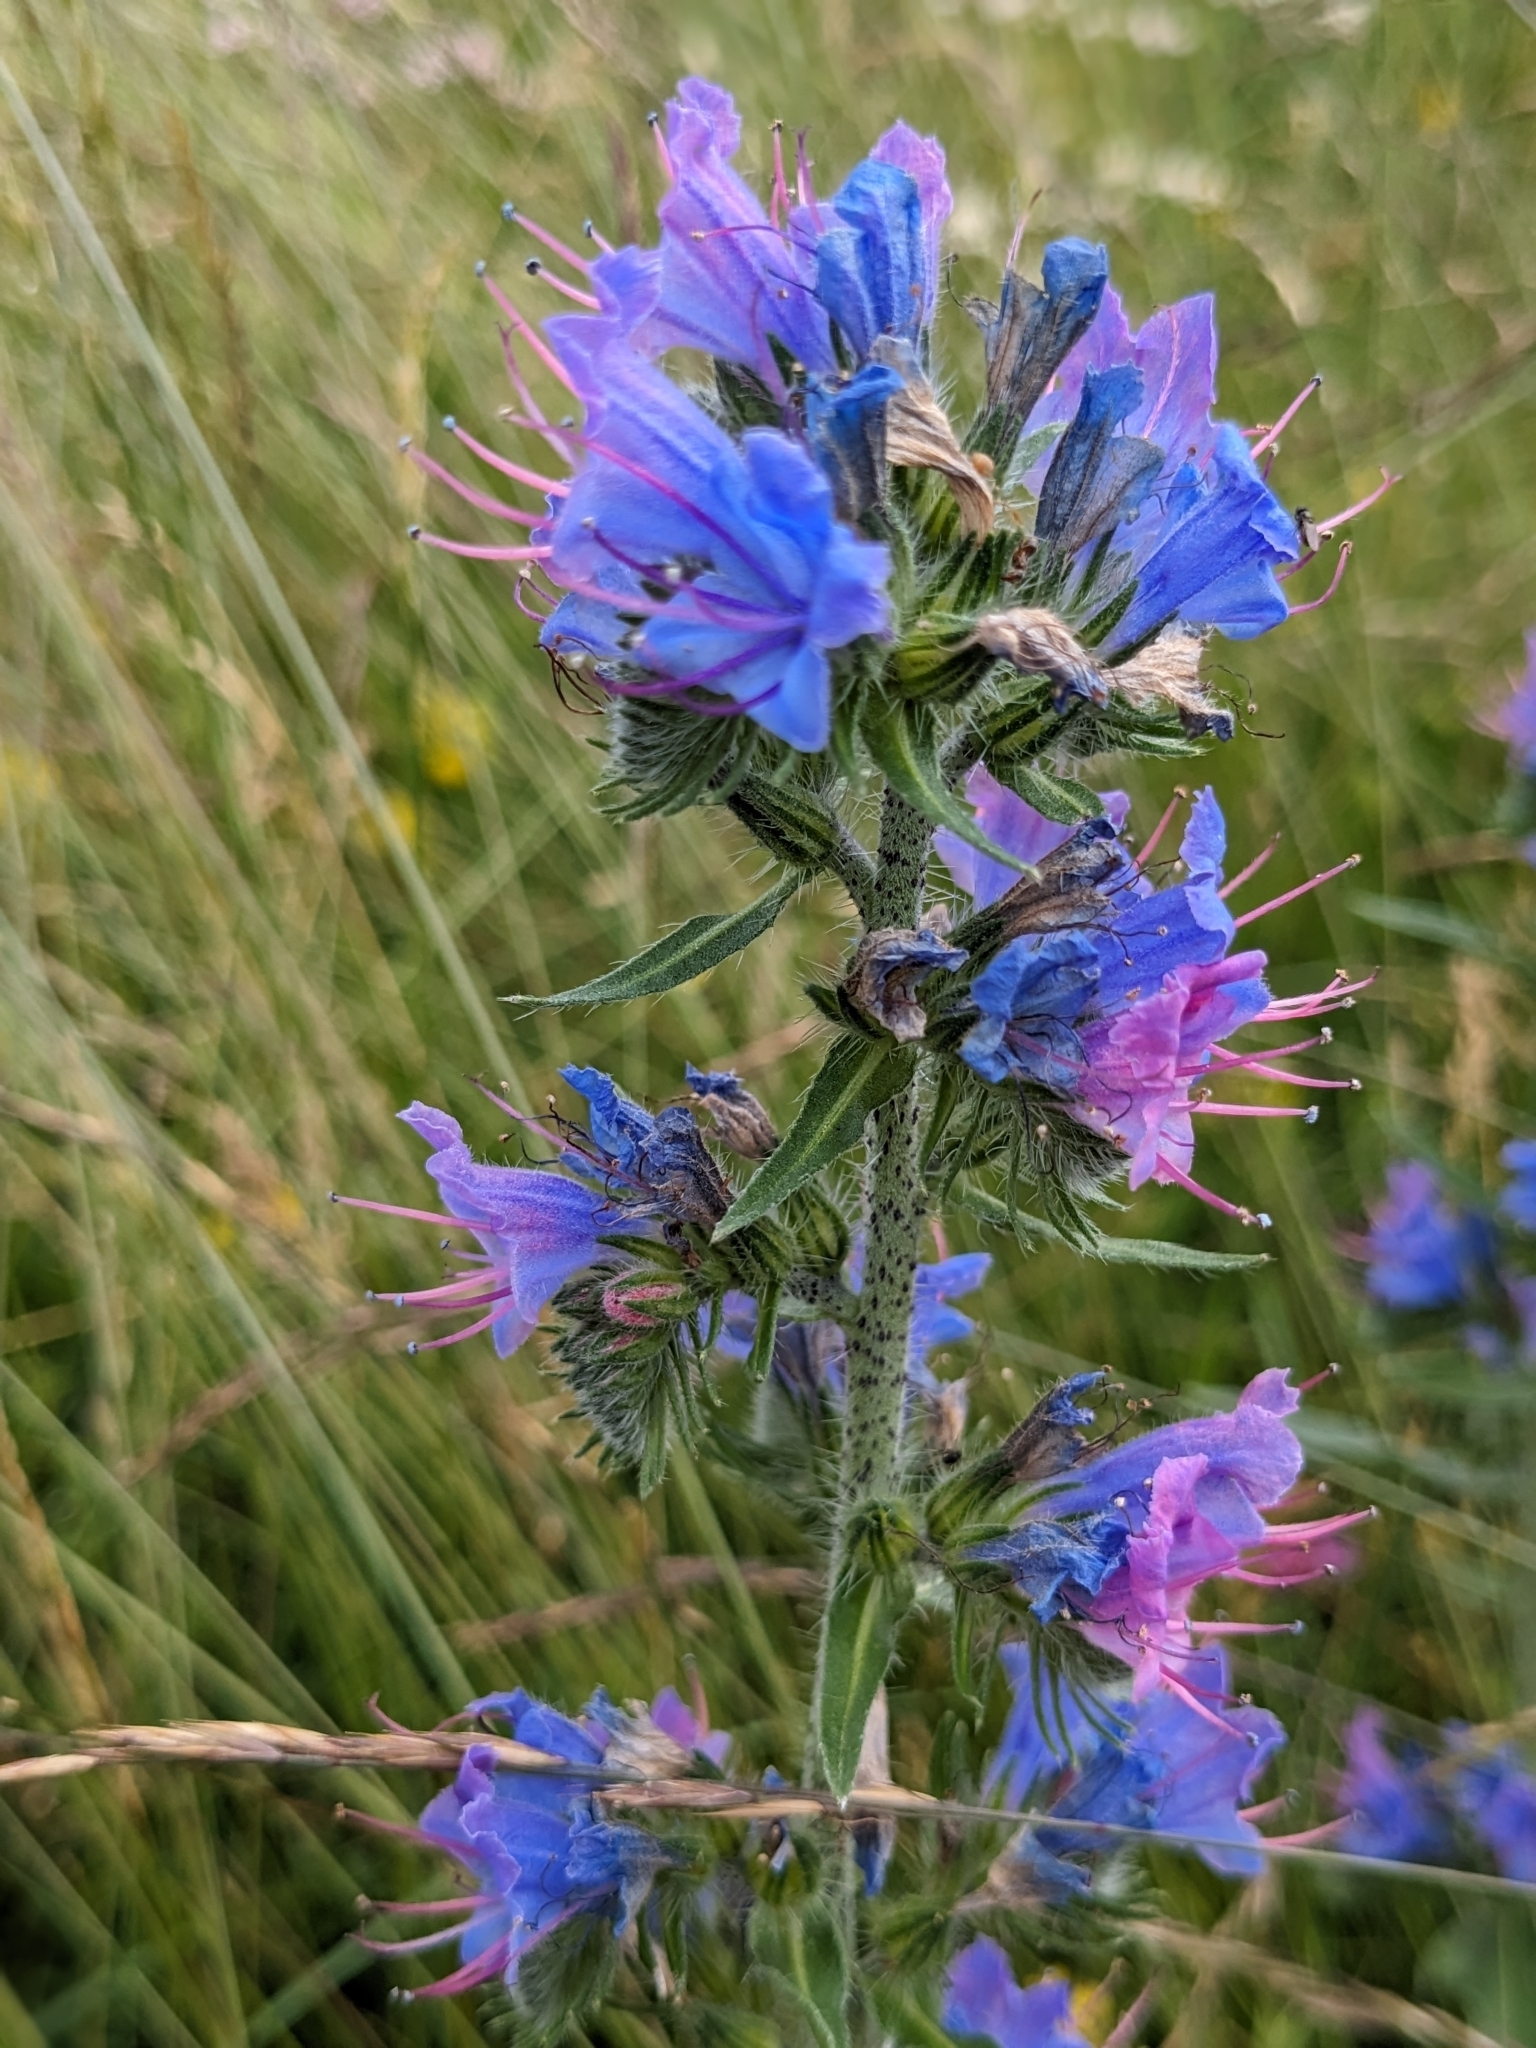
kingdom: Plantae
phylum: Tracheophyta
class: Magnoliopsida
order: Boraginales
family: Boraginaceae
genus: Echium
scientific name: Echium vulgare
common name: Common viper's bugloss
